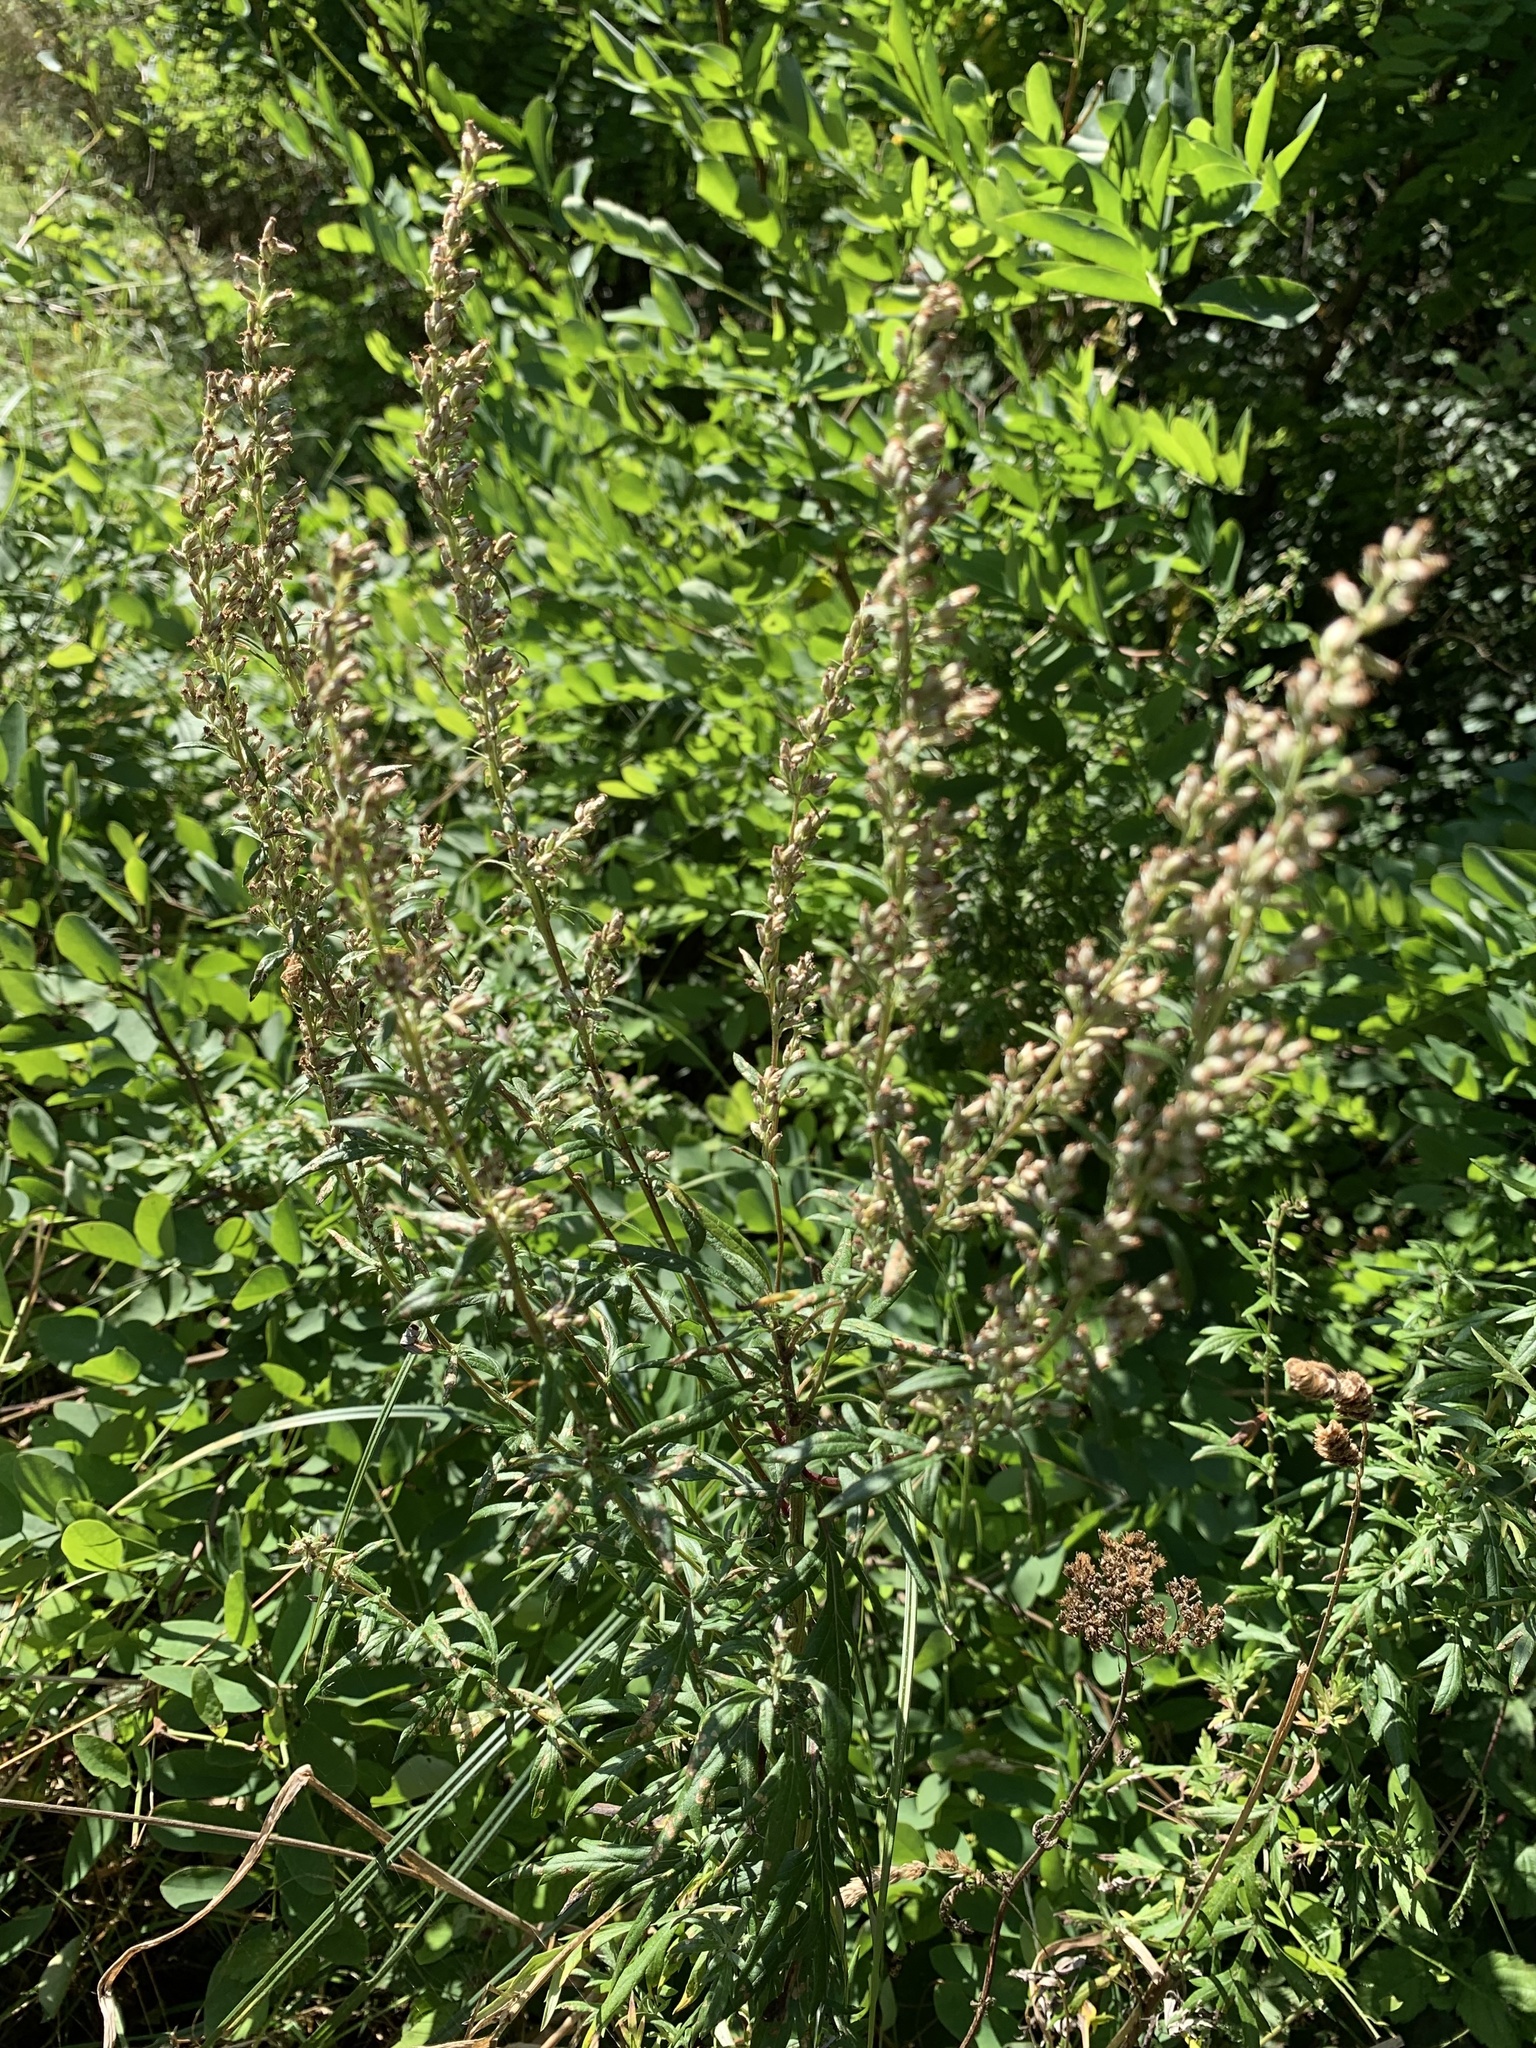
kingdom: Plantae
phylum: Tracheophyta
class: Magnoliopsida
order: Asterales
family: Asteraceae
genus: Artemisia
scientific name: Artemisia vulgaris
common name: Mugwort
